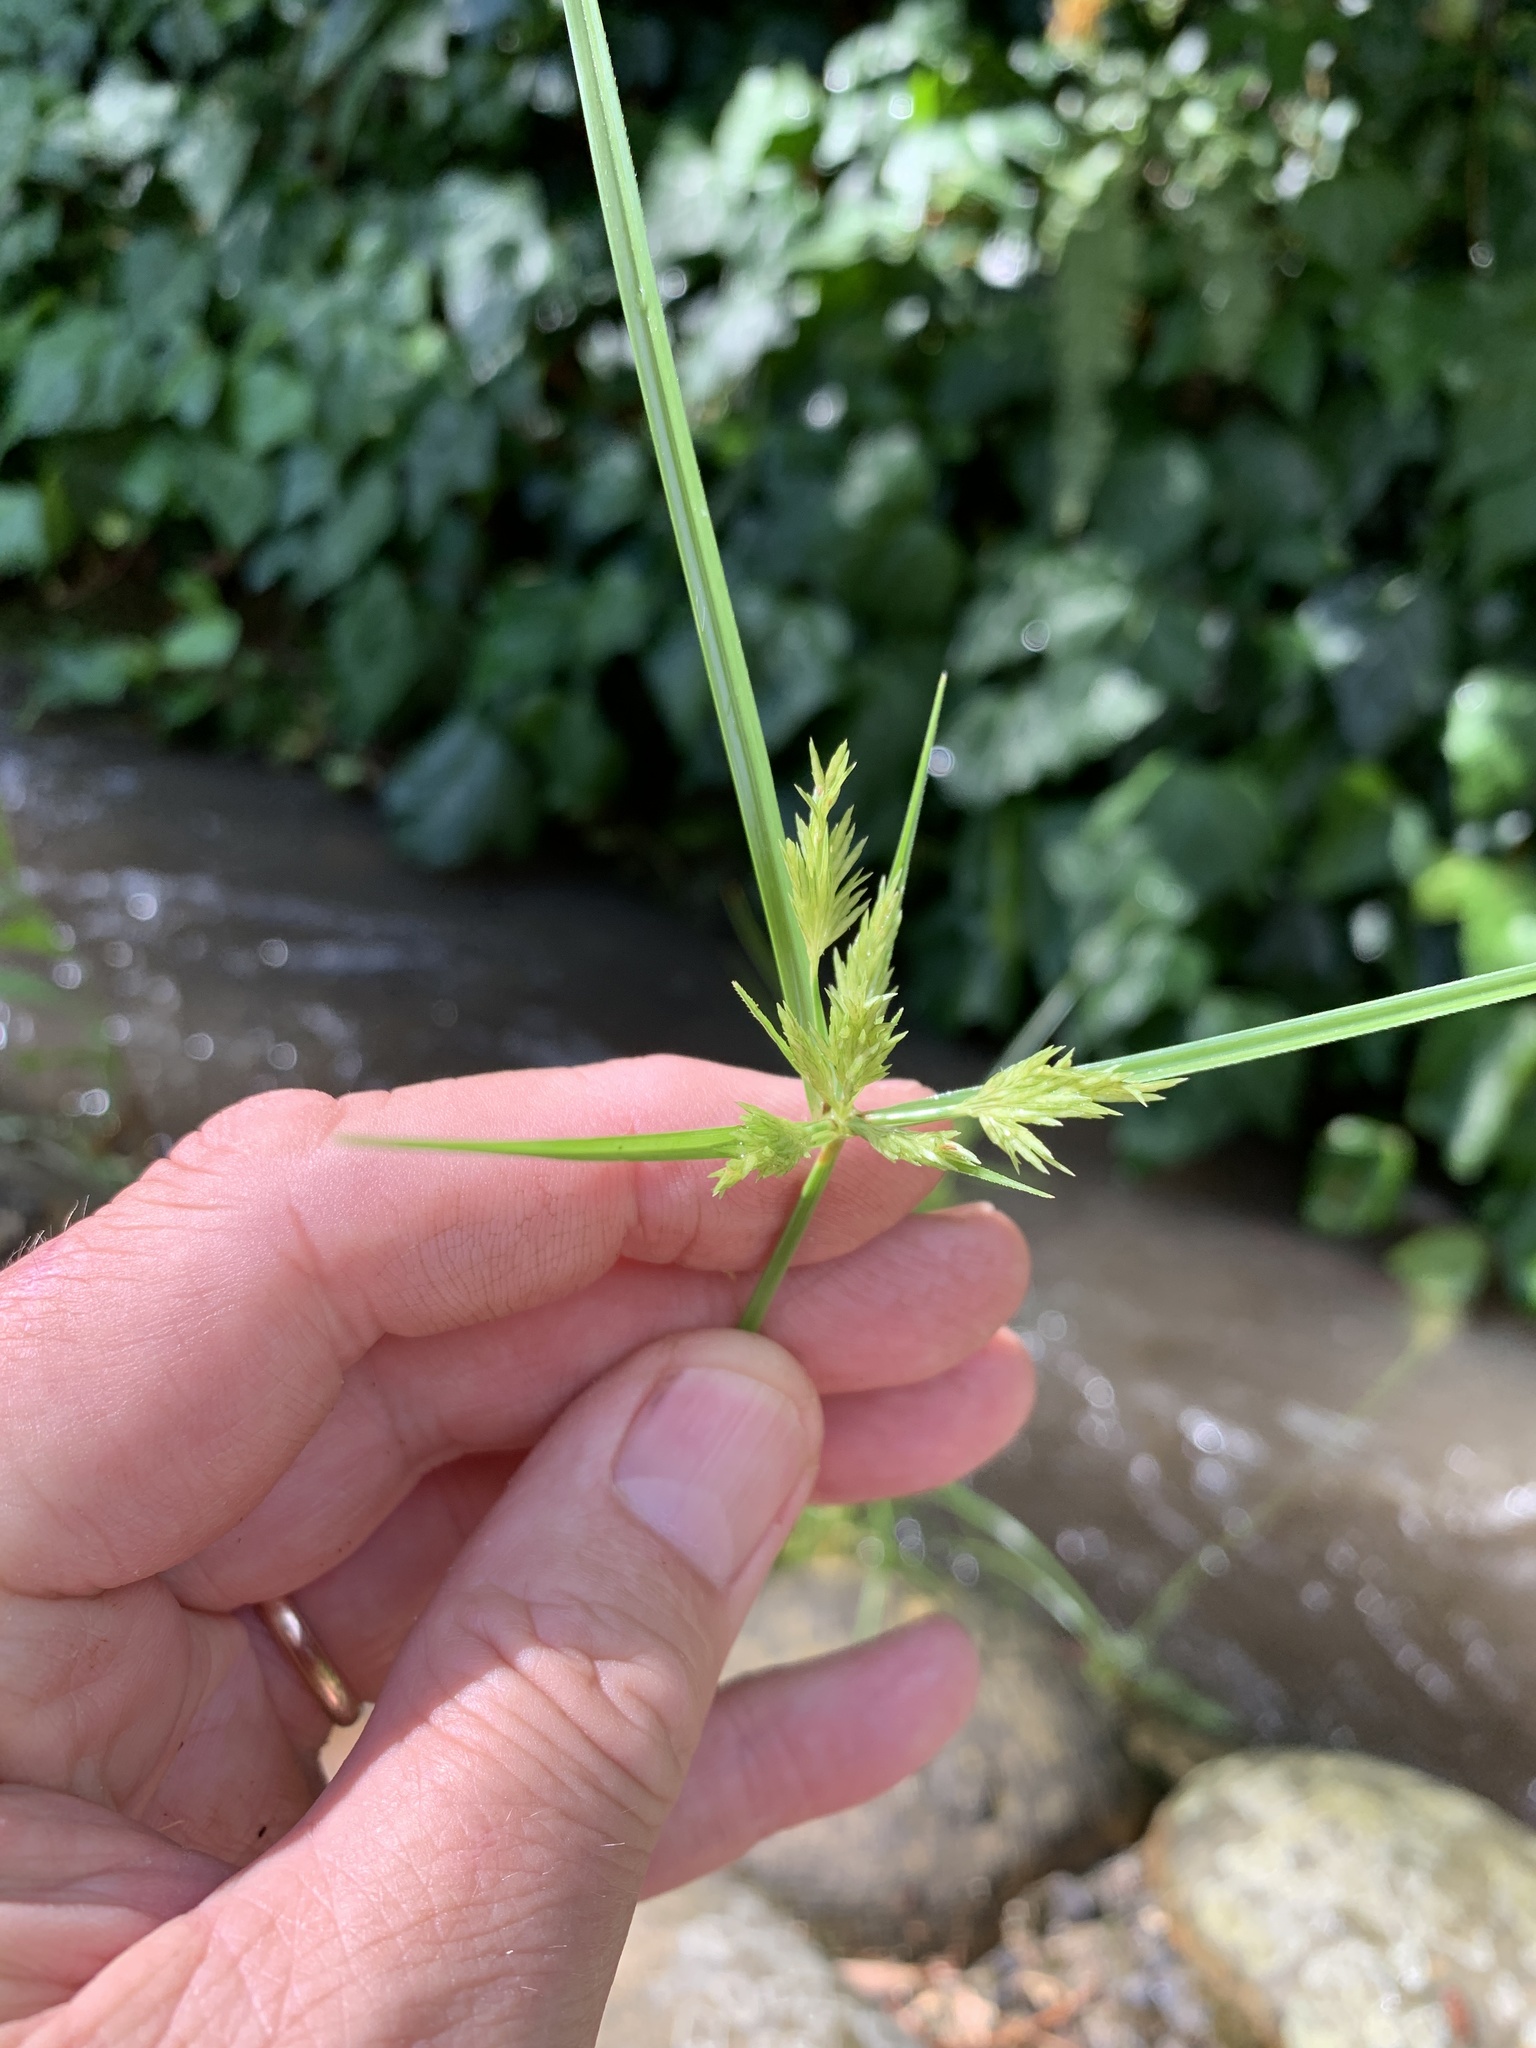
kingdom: Plantae
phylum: Tracheophyta
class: Liliopsida
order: Poales
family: Cyperaceae
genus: Cyperus
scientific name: Cyperus polystachyos
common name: Bunchy flat sedge
